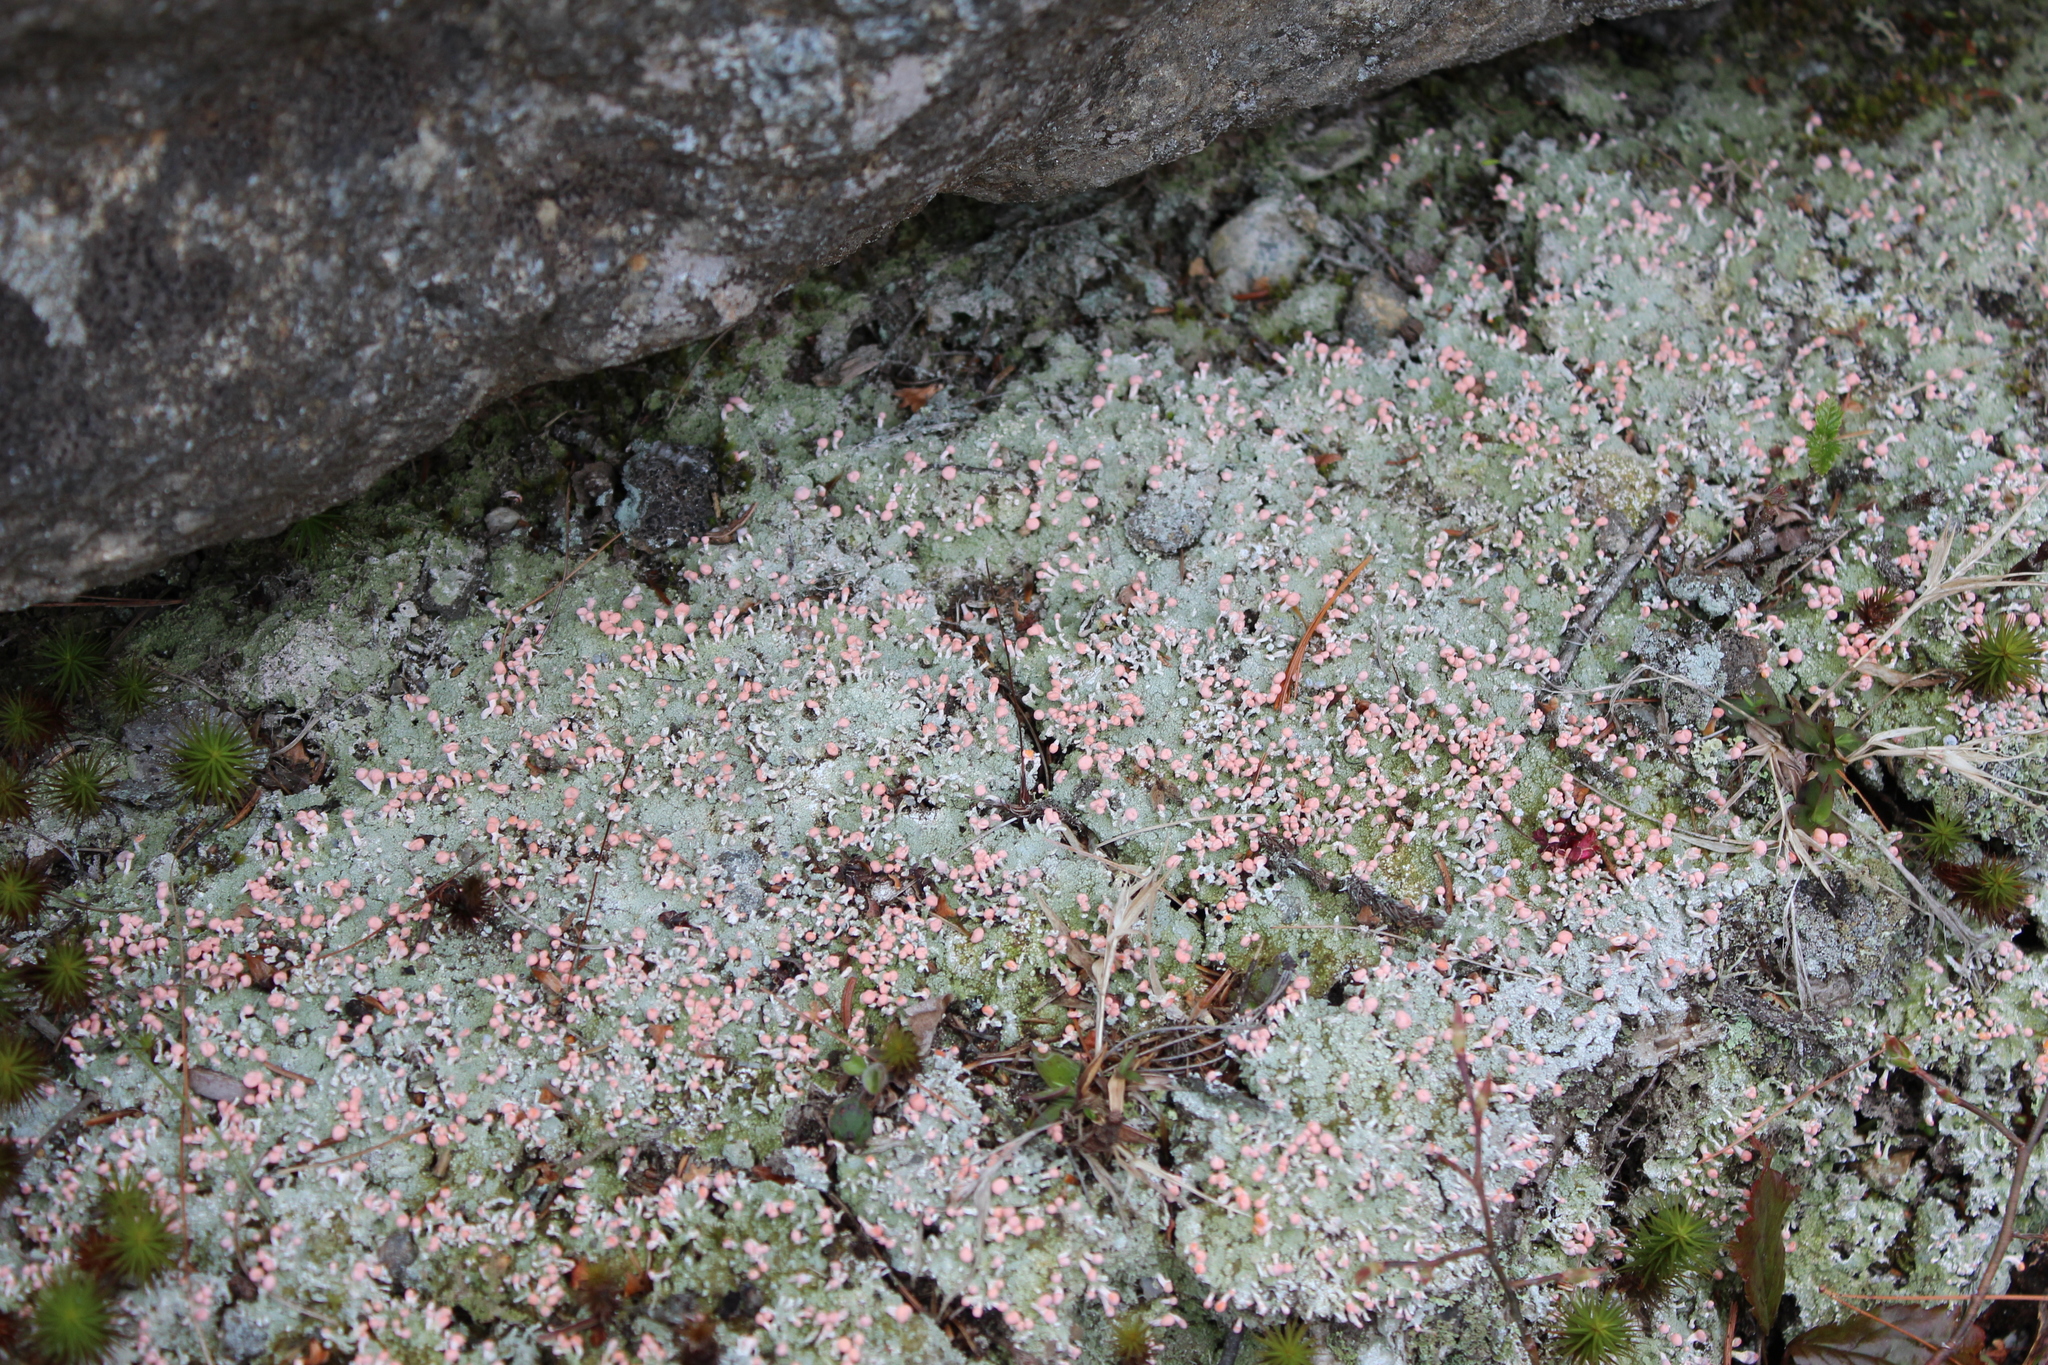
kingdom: Fungi
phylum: Ascomycota
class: Lecanoromycetes
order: Pertusariales
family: Icmadophilaceae
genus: Dibaeis
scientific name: Dibaeis baeomyces
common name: Pink earth lichen
